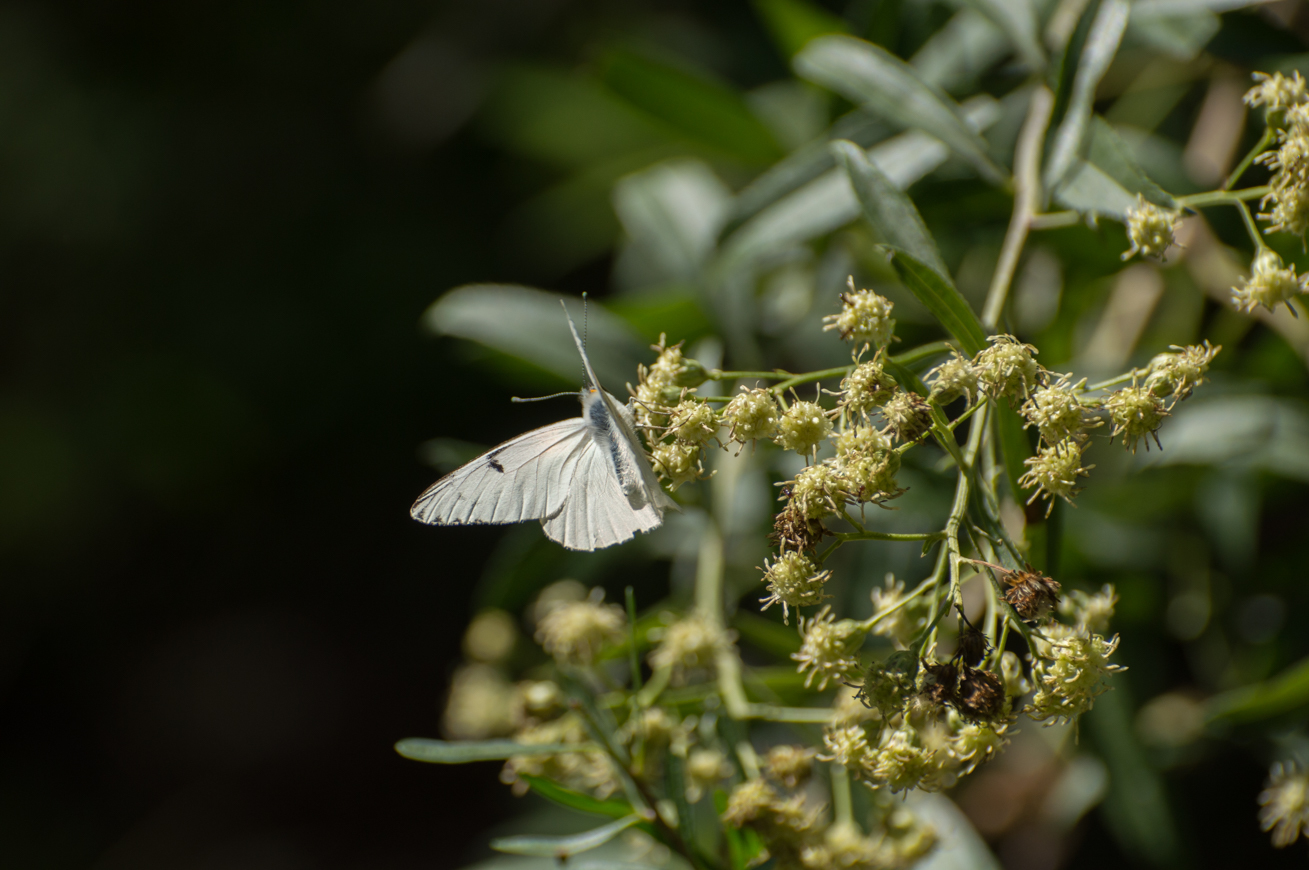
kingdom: Animalia
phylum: Arthropoda
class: Insecta
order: Lepidoptera
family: Pieridae
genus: Tatochila
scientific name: Tatochila mercedis
